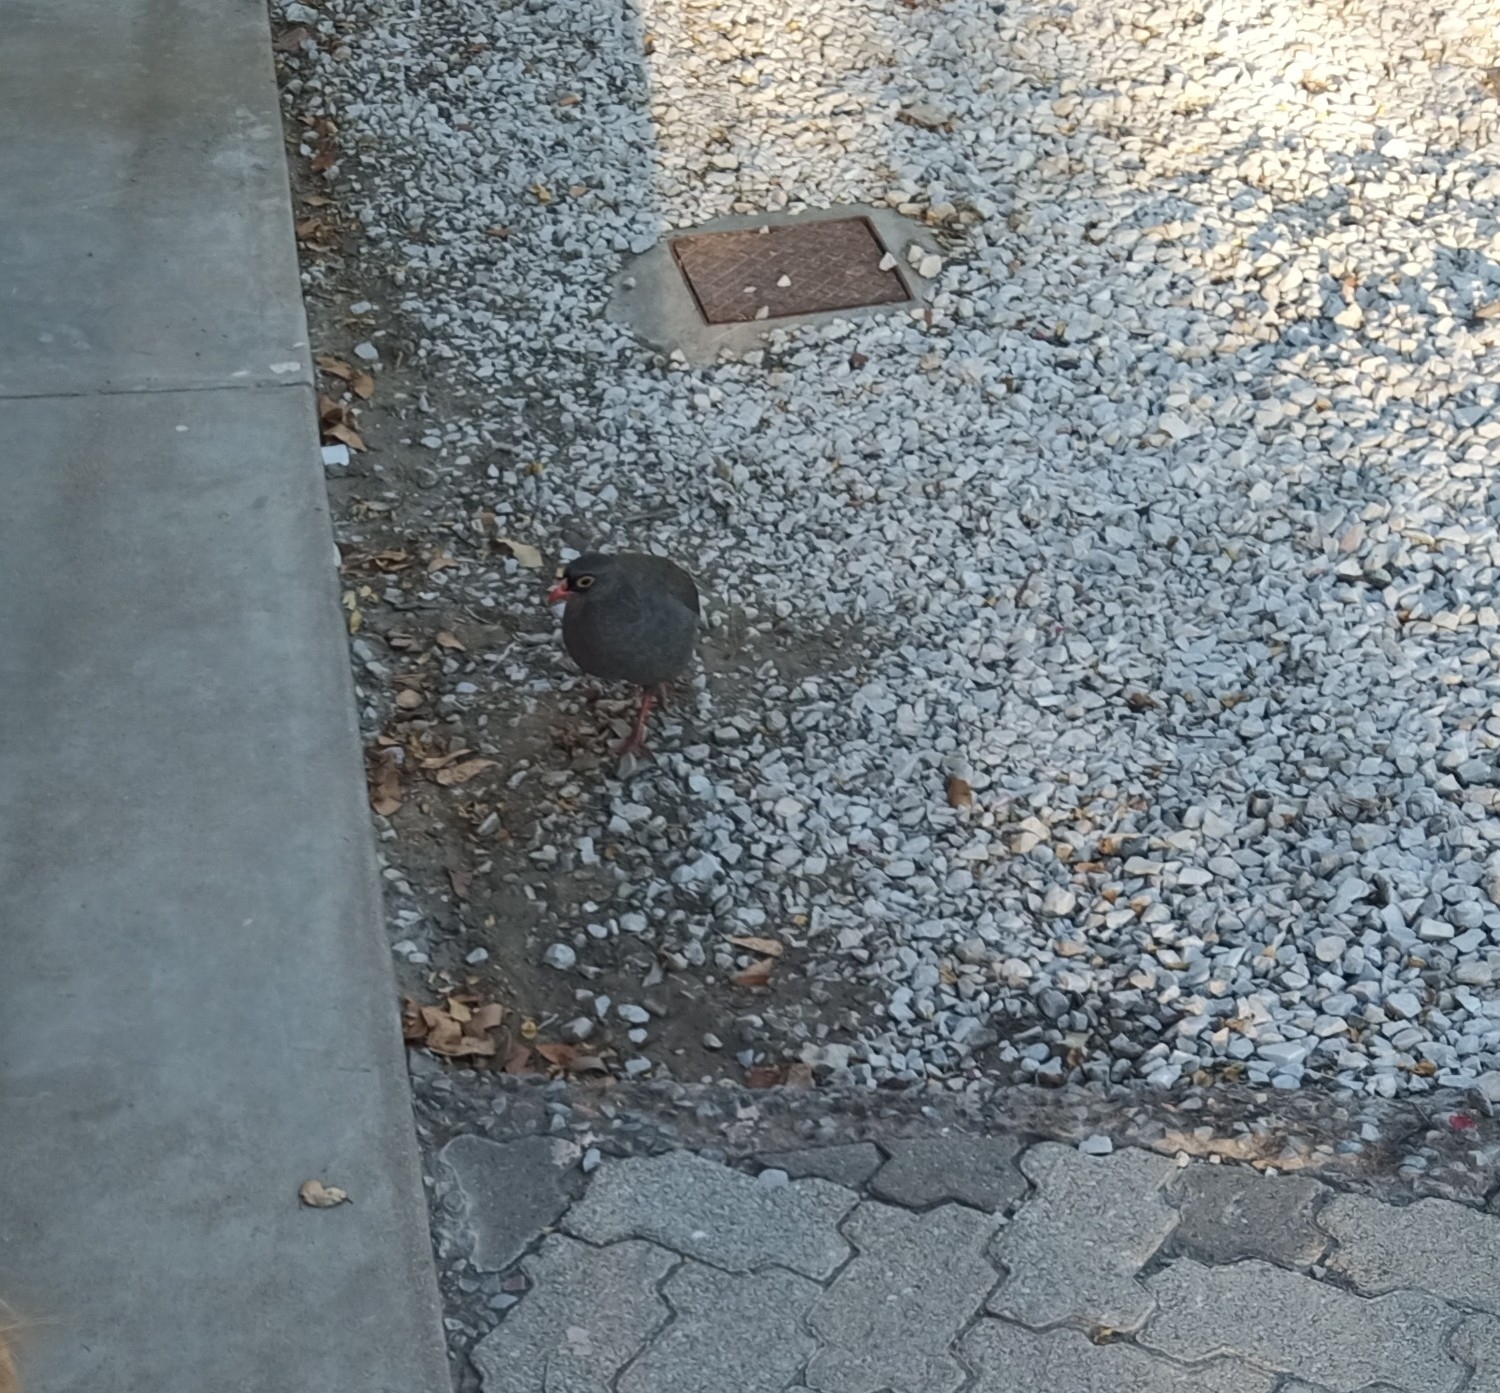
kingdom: Animalia
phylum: Chordata
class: Aves
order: Galliformes
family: Phasianidae
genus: Pternistis
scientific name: Pternistis adspersus
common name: Red-billed spurfowl
